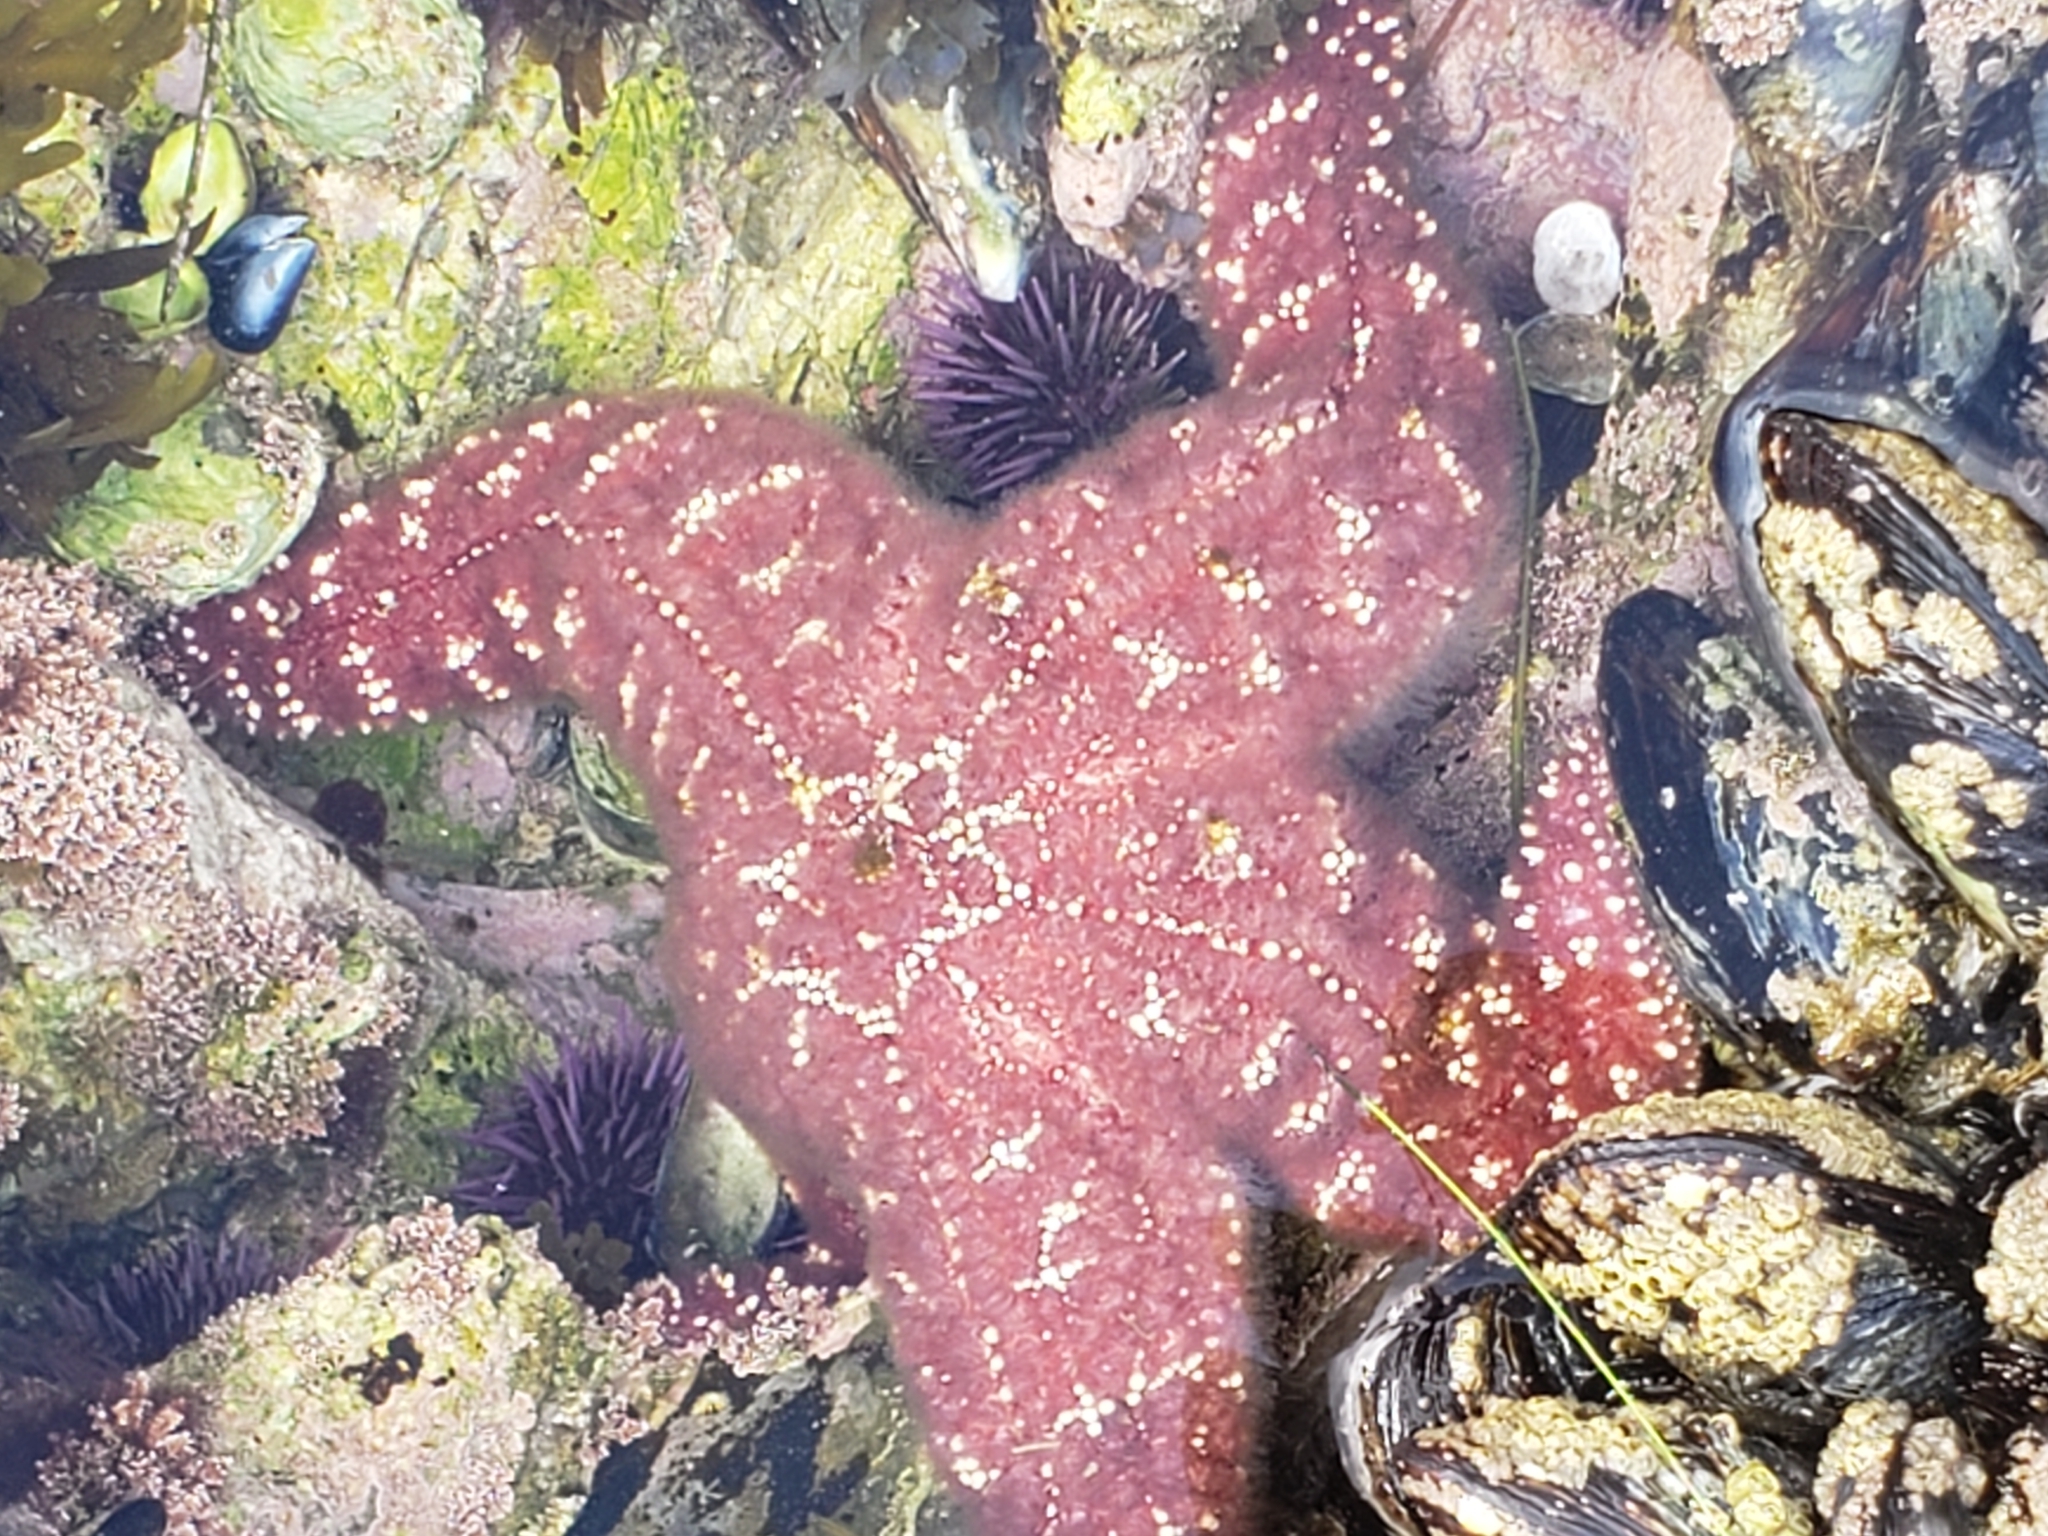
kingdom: Animalia
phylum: Echinodermata
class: Asteroidea
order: Forcipulatida
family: Asteriidae
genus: Pisaster
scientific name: Pisaster ochraceus
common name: Ochre stars
